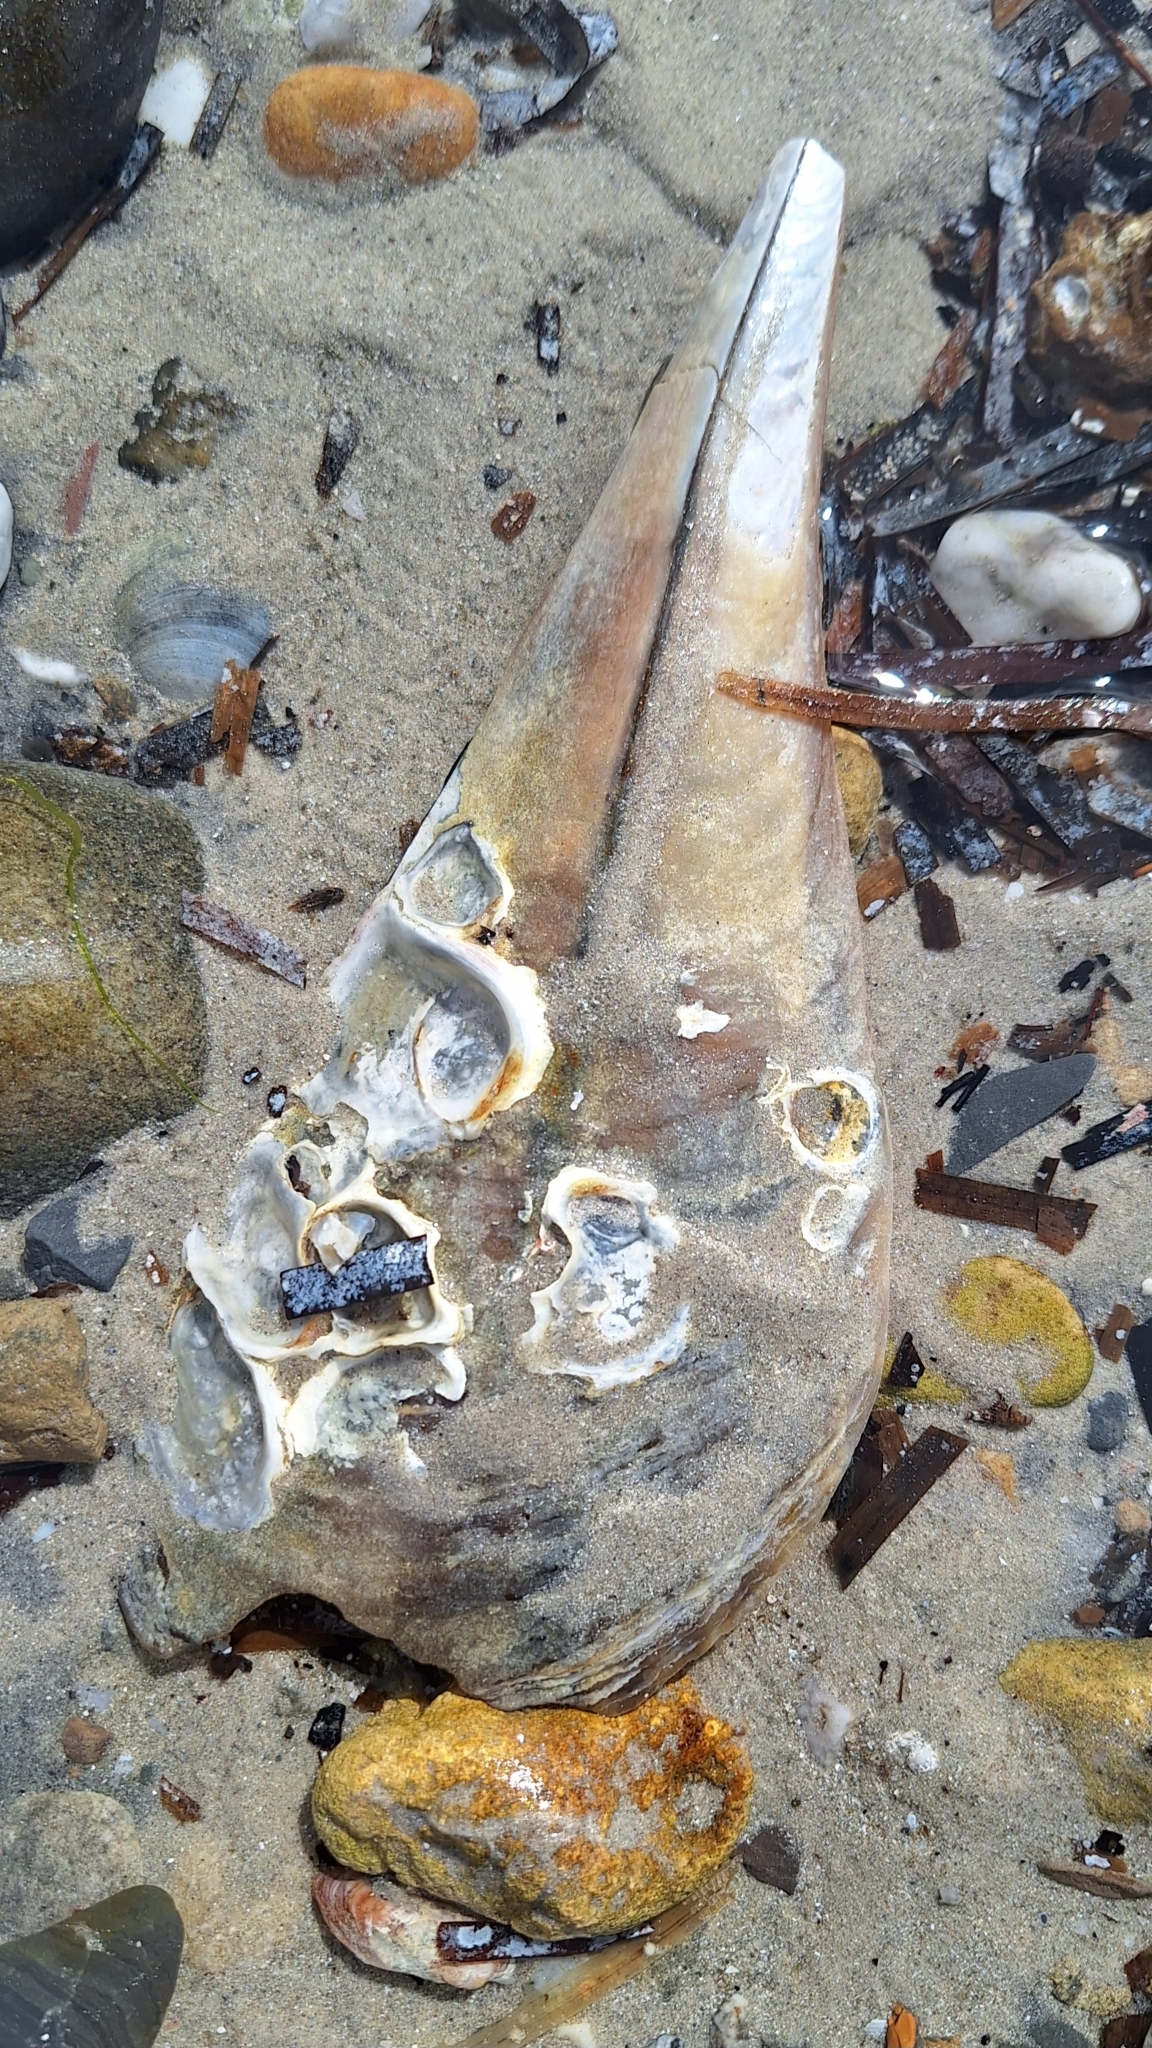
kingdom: Animalia
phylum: Mollusca
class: Bivalvia
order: Ostreida
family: Pinnidae
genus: Pinna
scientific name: Pinna bicolor
